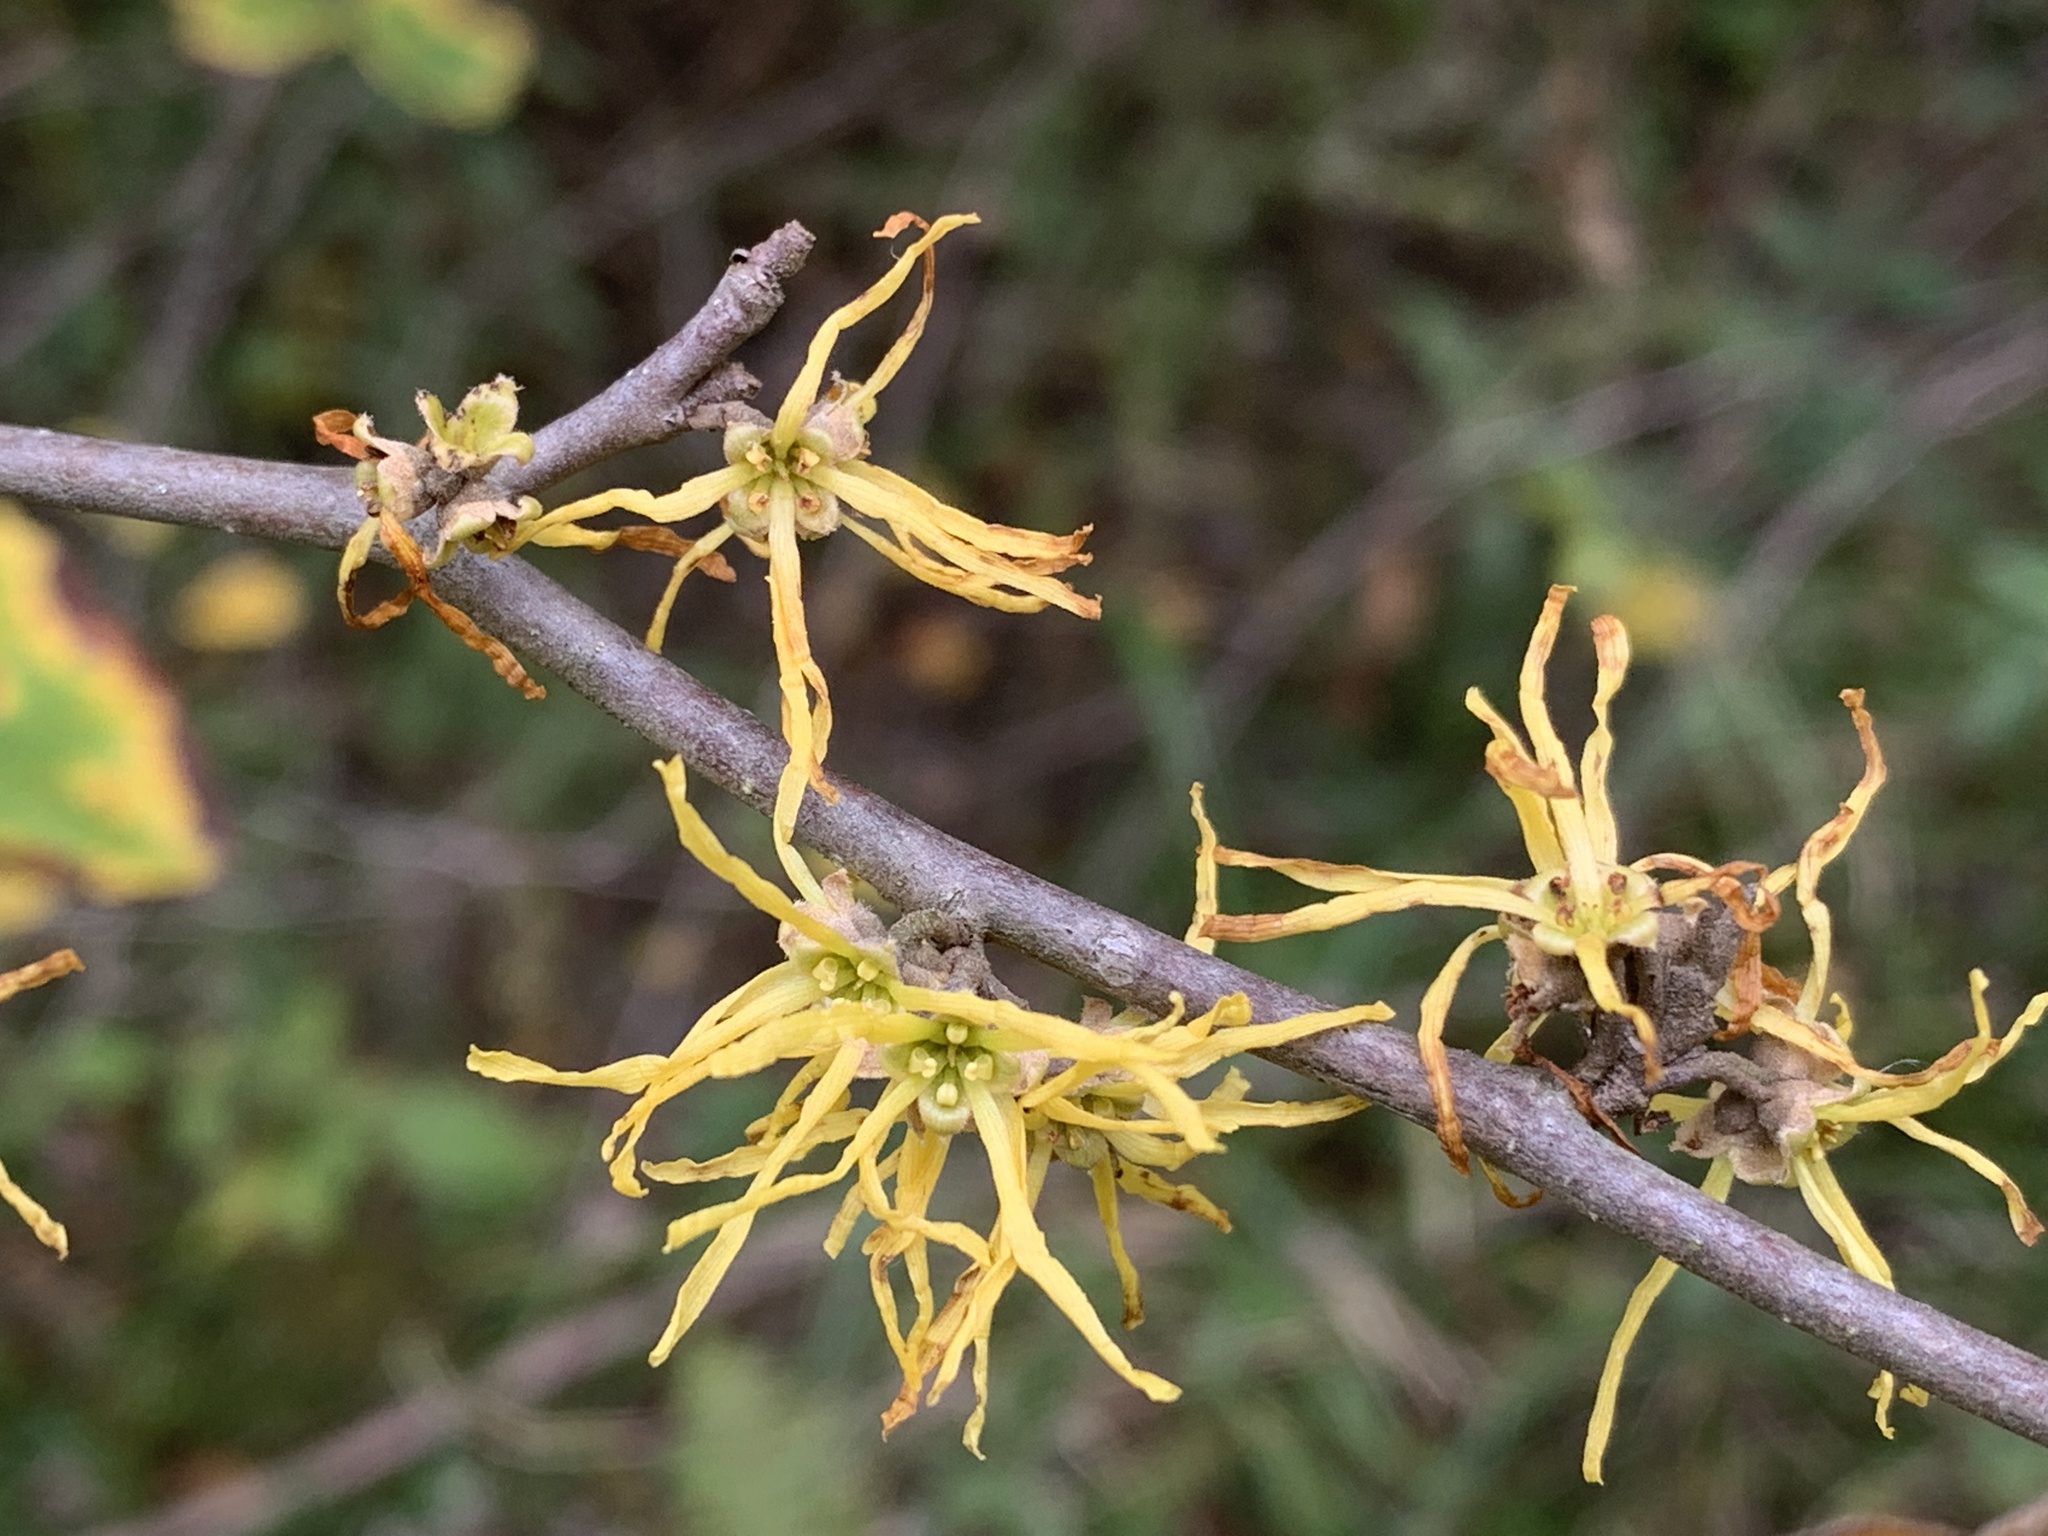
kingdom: Plantae
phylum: Tracheophyta
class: Magnoliopsida
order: Saxifragales
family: Hamamelidaceae
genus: Hamamelis
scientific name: Hamamelis virginiana
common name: Witch-hazel
